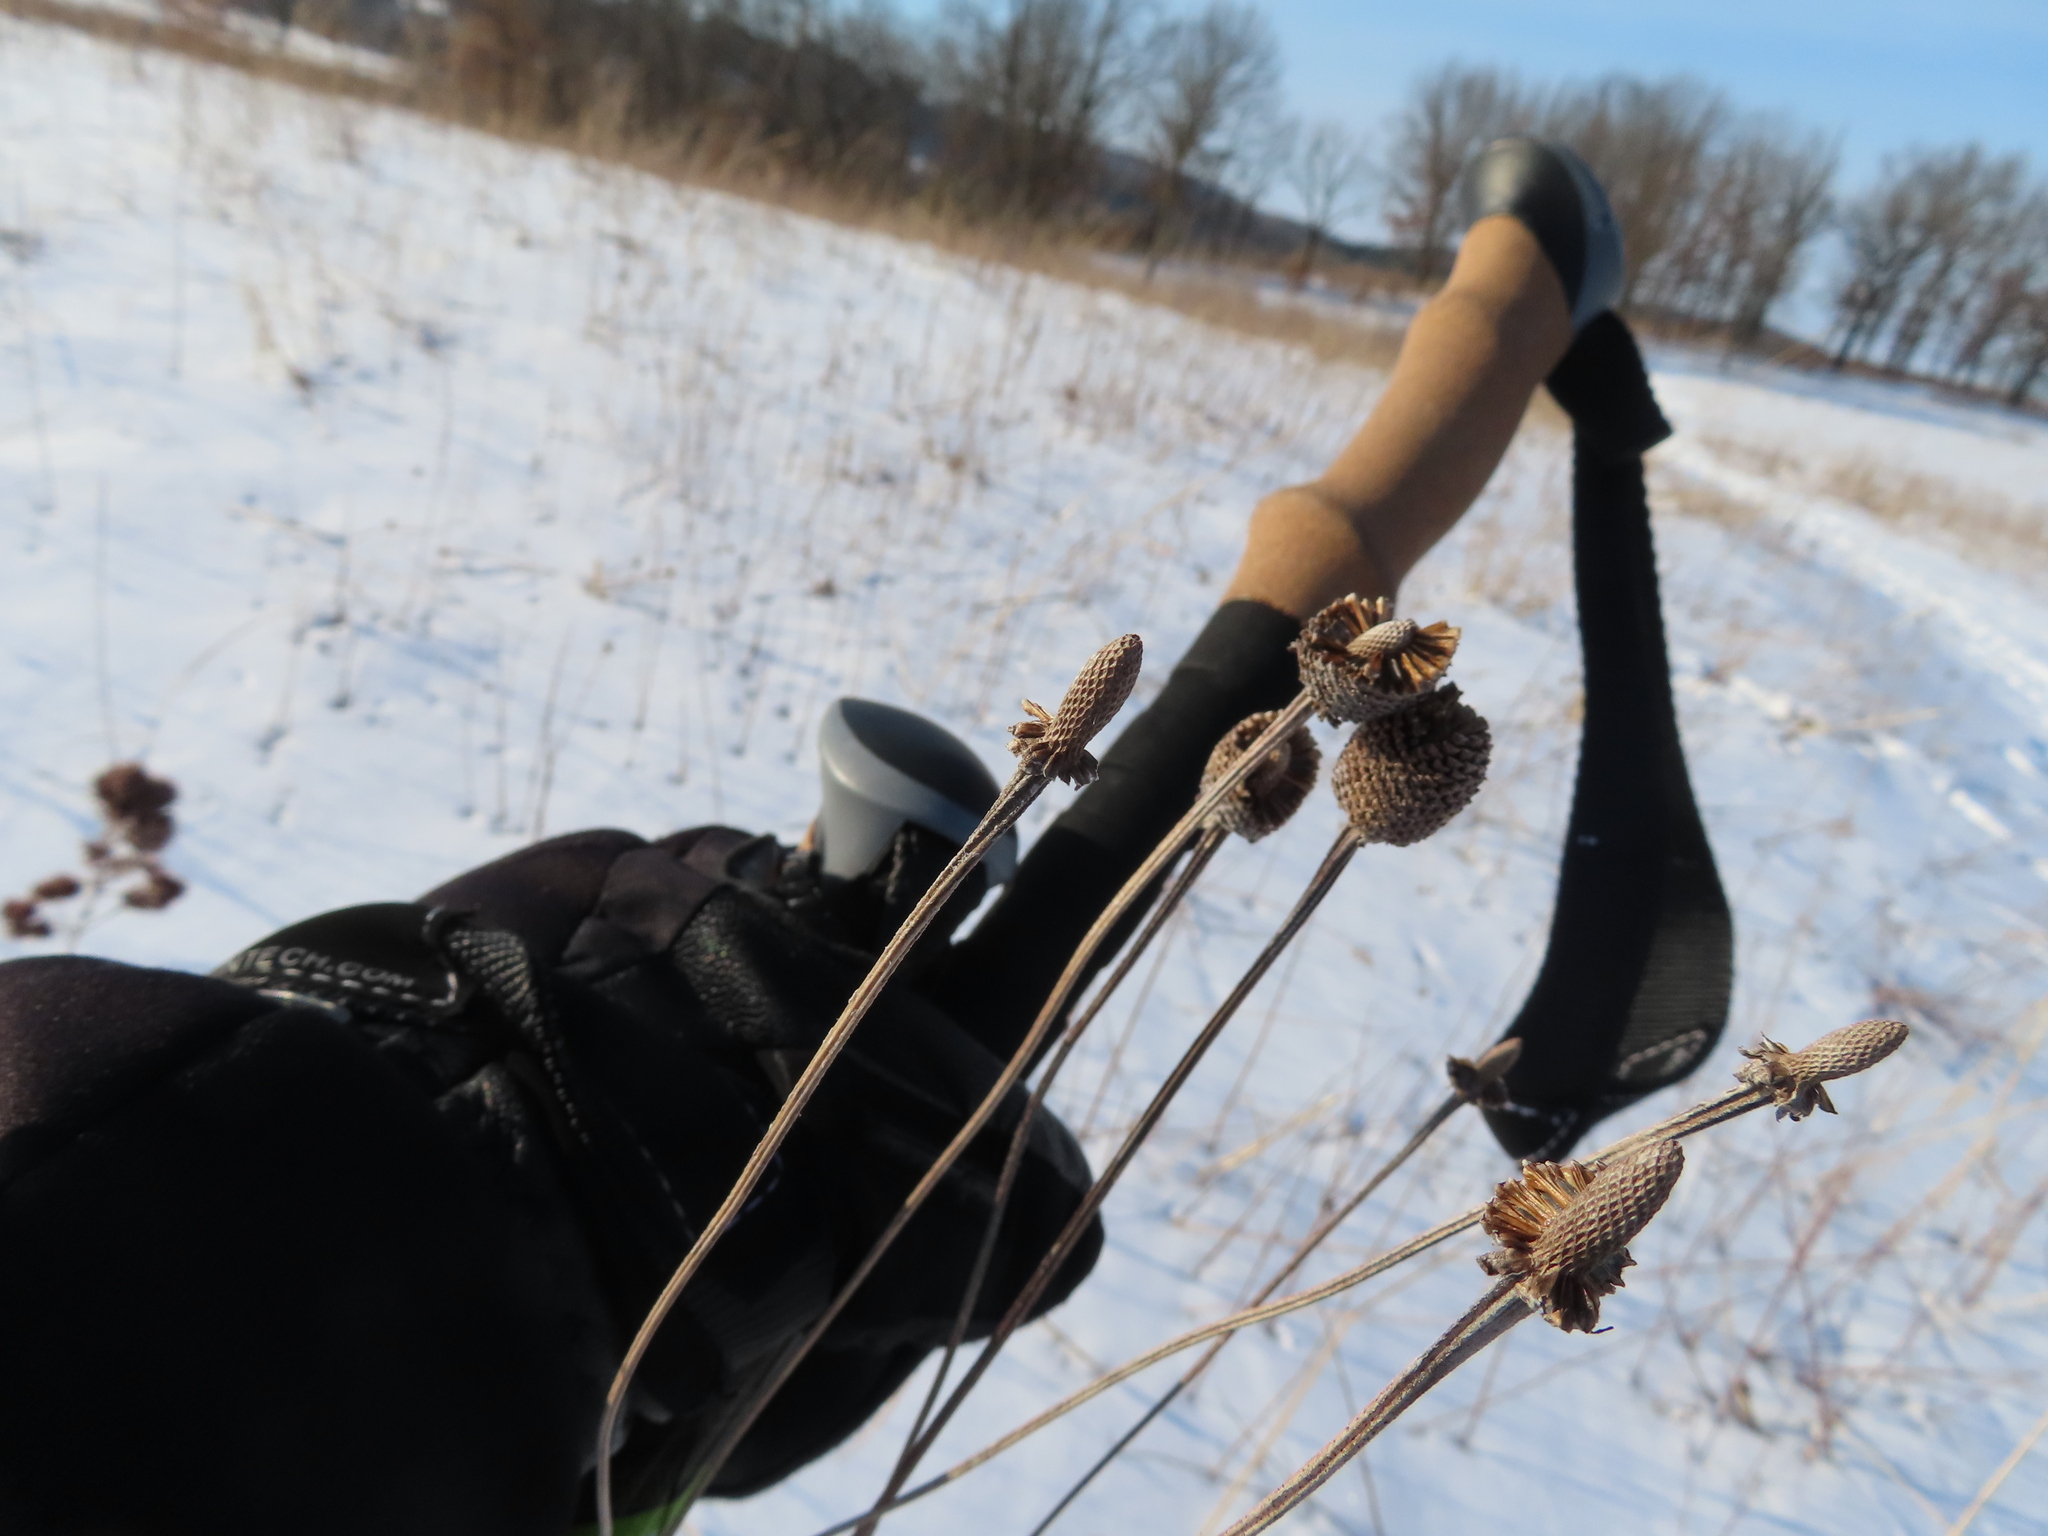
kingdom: Plantae
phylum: Tracheophyta
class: Magnoliopsida
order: Asterales
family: Asteraceae
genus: Ratibida
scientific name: Ratibida pinnata
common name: Drooping prairie-coneflower
